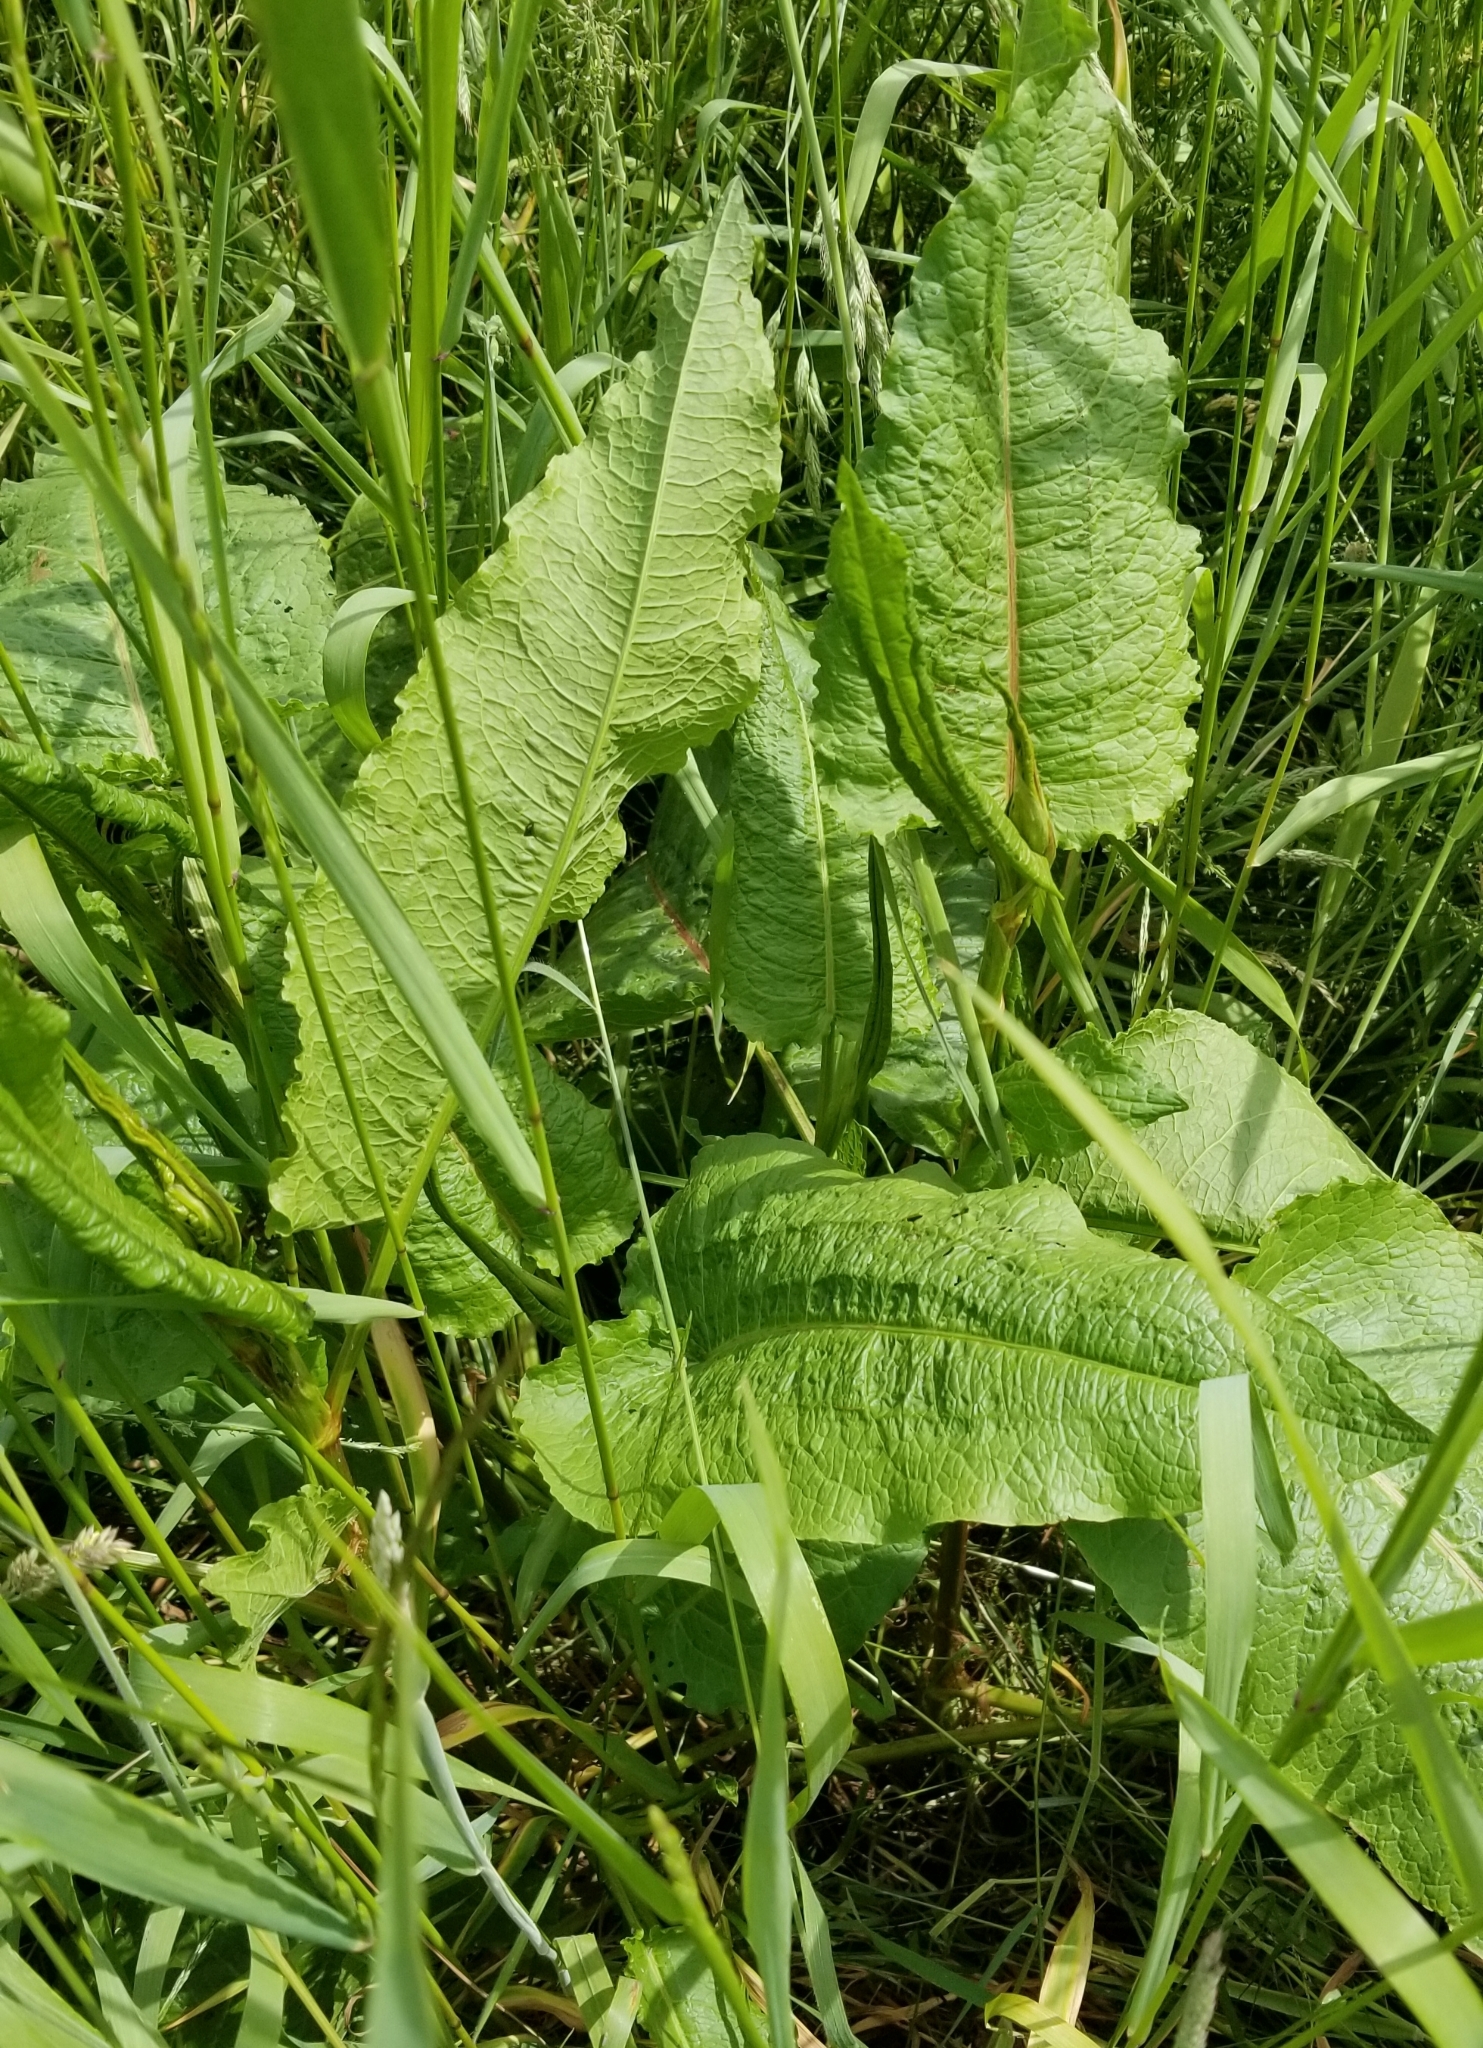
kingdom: Plantae
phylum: Tracheophyta
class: Magnoliopsida
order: Caryophyllales
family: Polygonaceae
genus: Rumex
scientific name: Rumex obtusifolius
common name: Bitter dock
